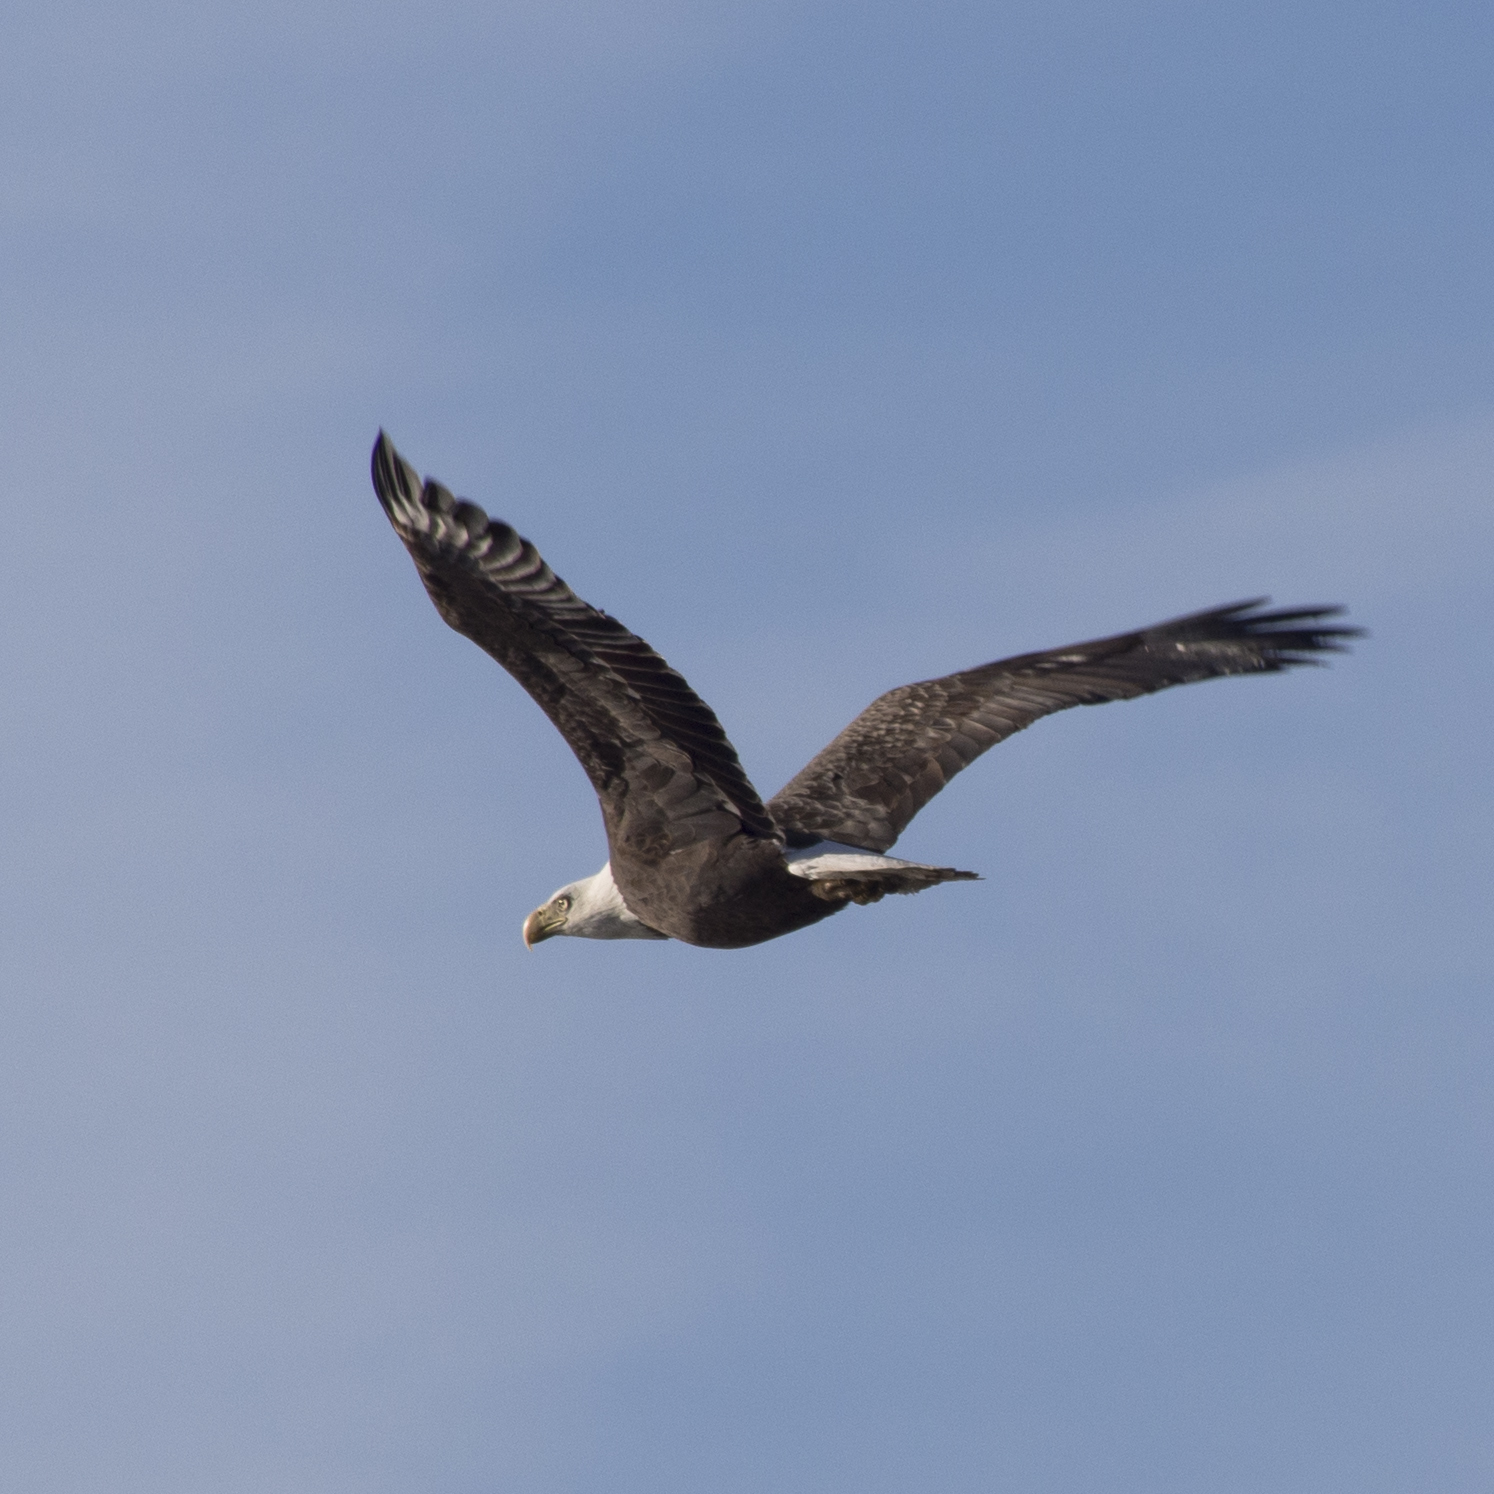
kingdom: Animalia
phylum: Chordata
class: Aves
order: Accipitriformes
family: Accipitridae
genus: Haliaeetus
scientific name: Haliaeetus leucocephalus
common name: Bald eagle
